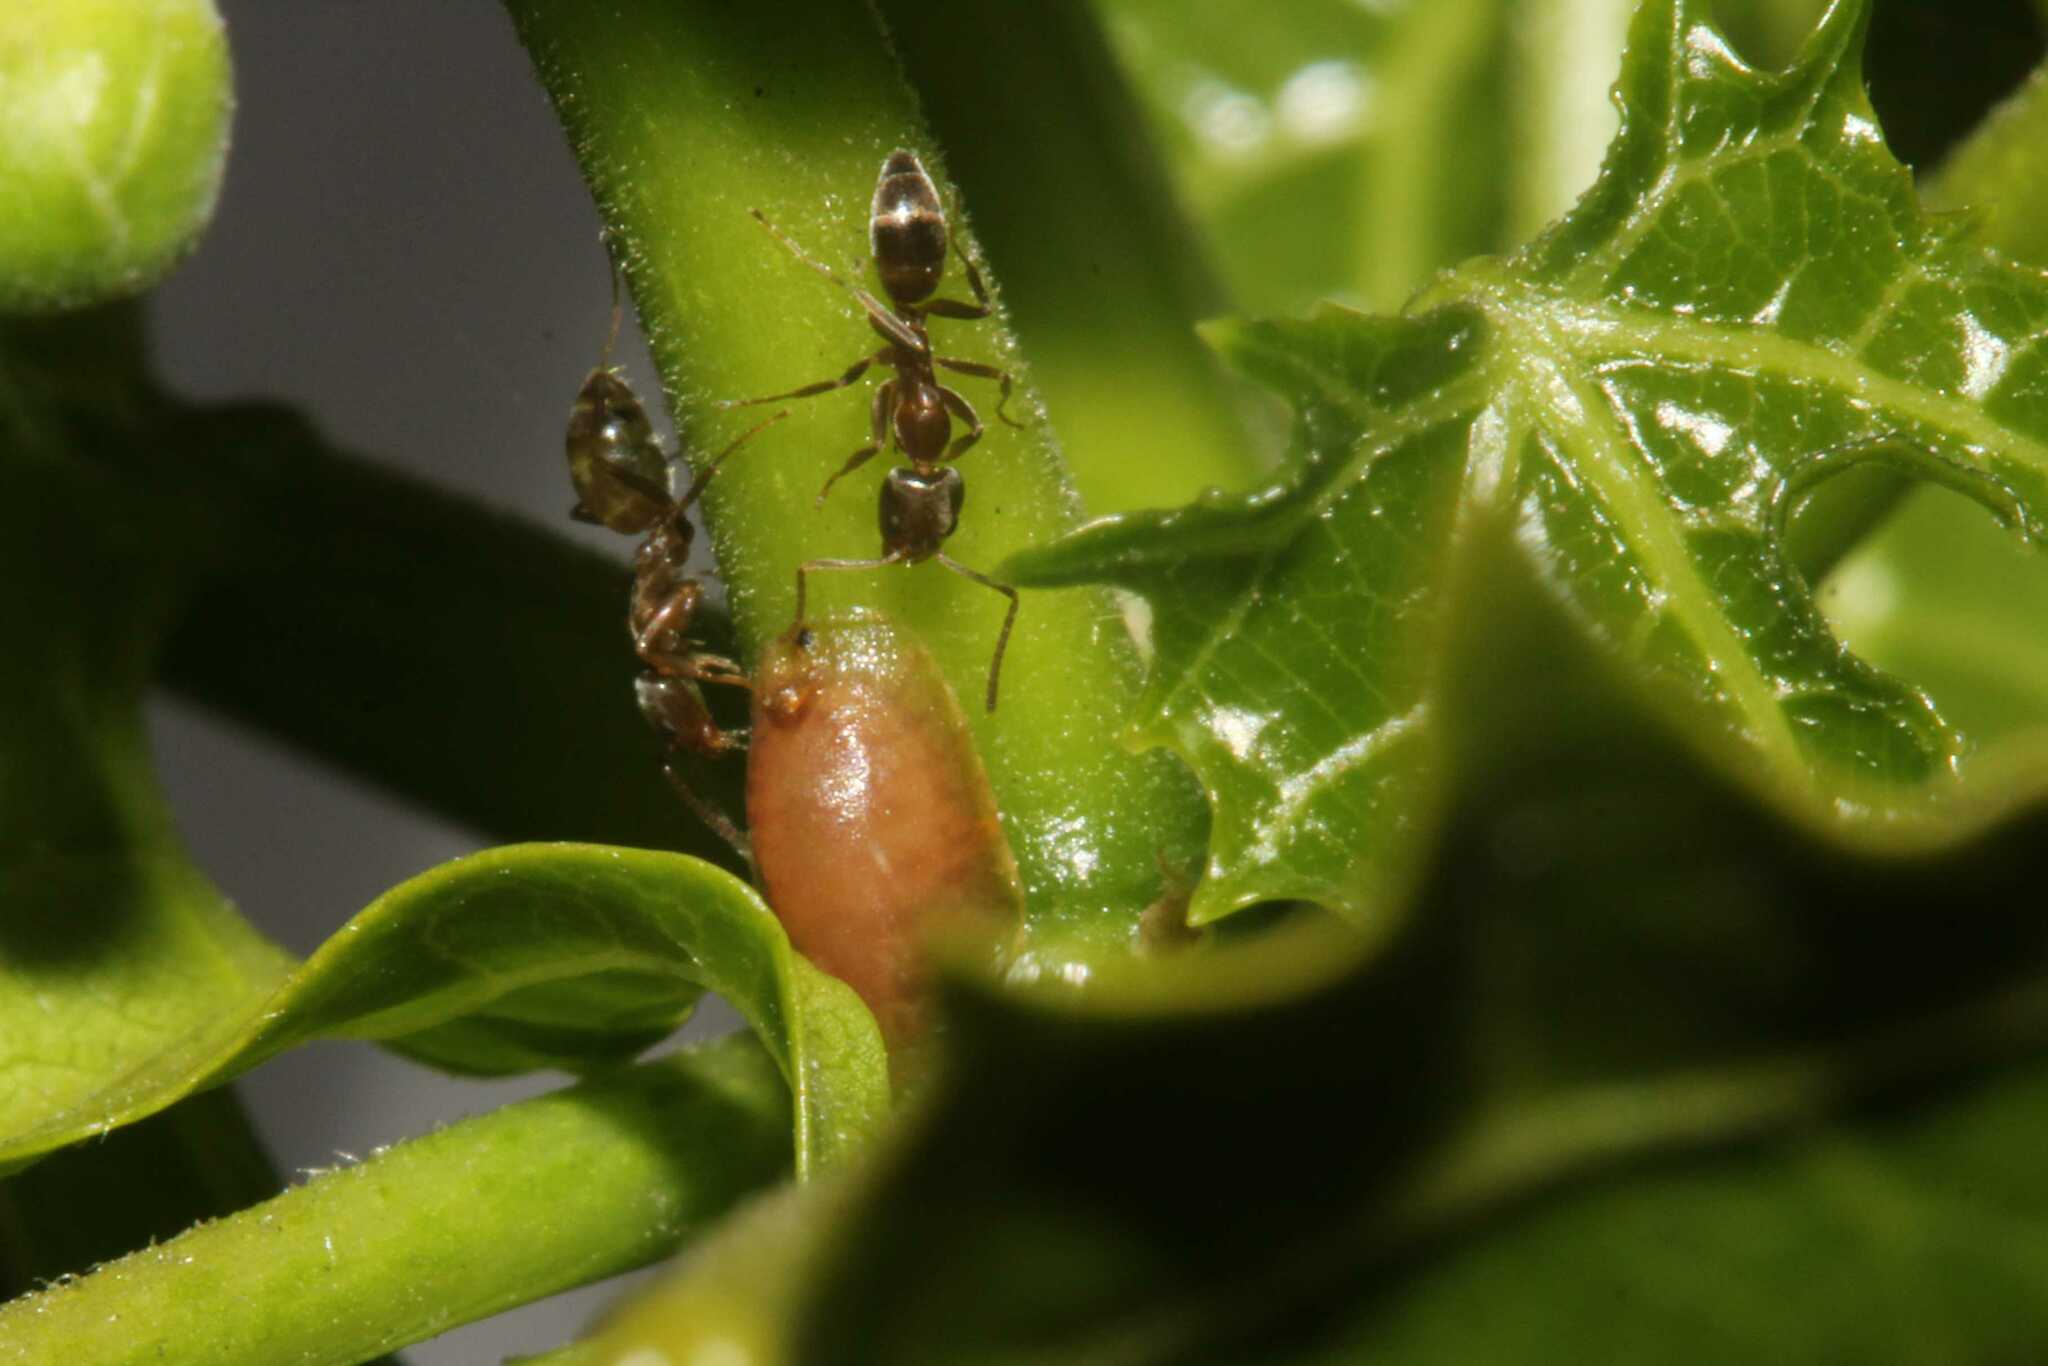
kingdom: Animalia
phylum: Arthropoda
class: Insecta
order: Hemiptera
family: Coccidae
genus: Coccus
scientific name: Coccus hesperidum
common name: Soft brown scale
